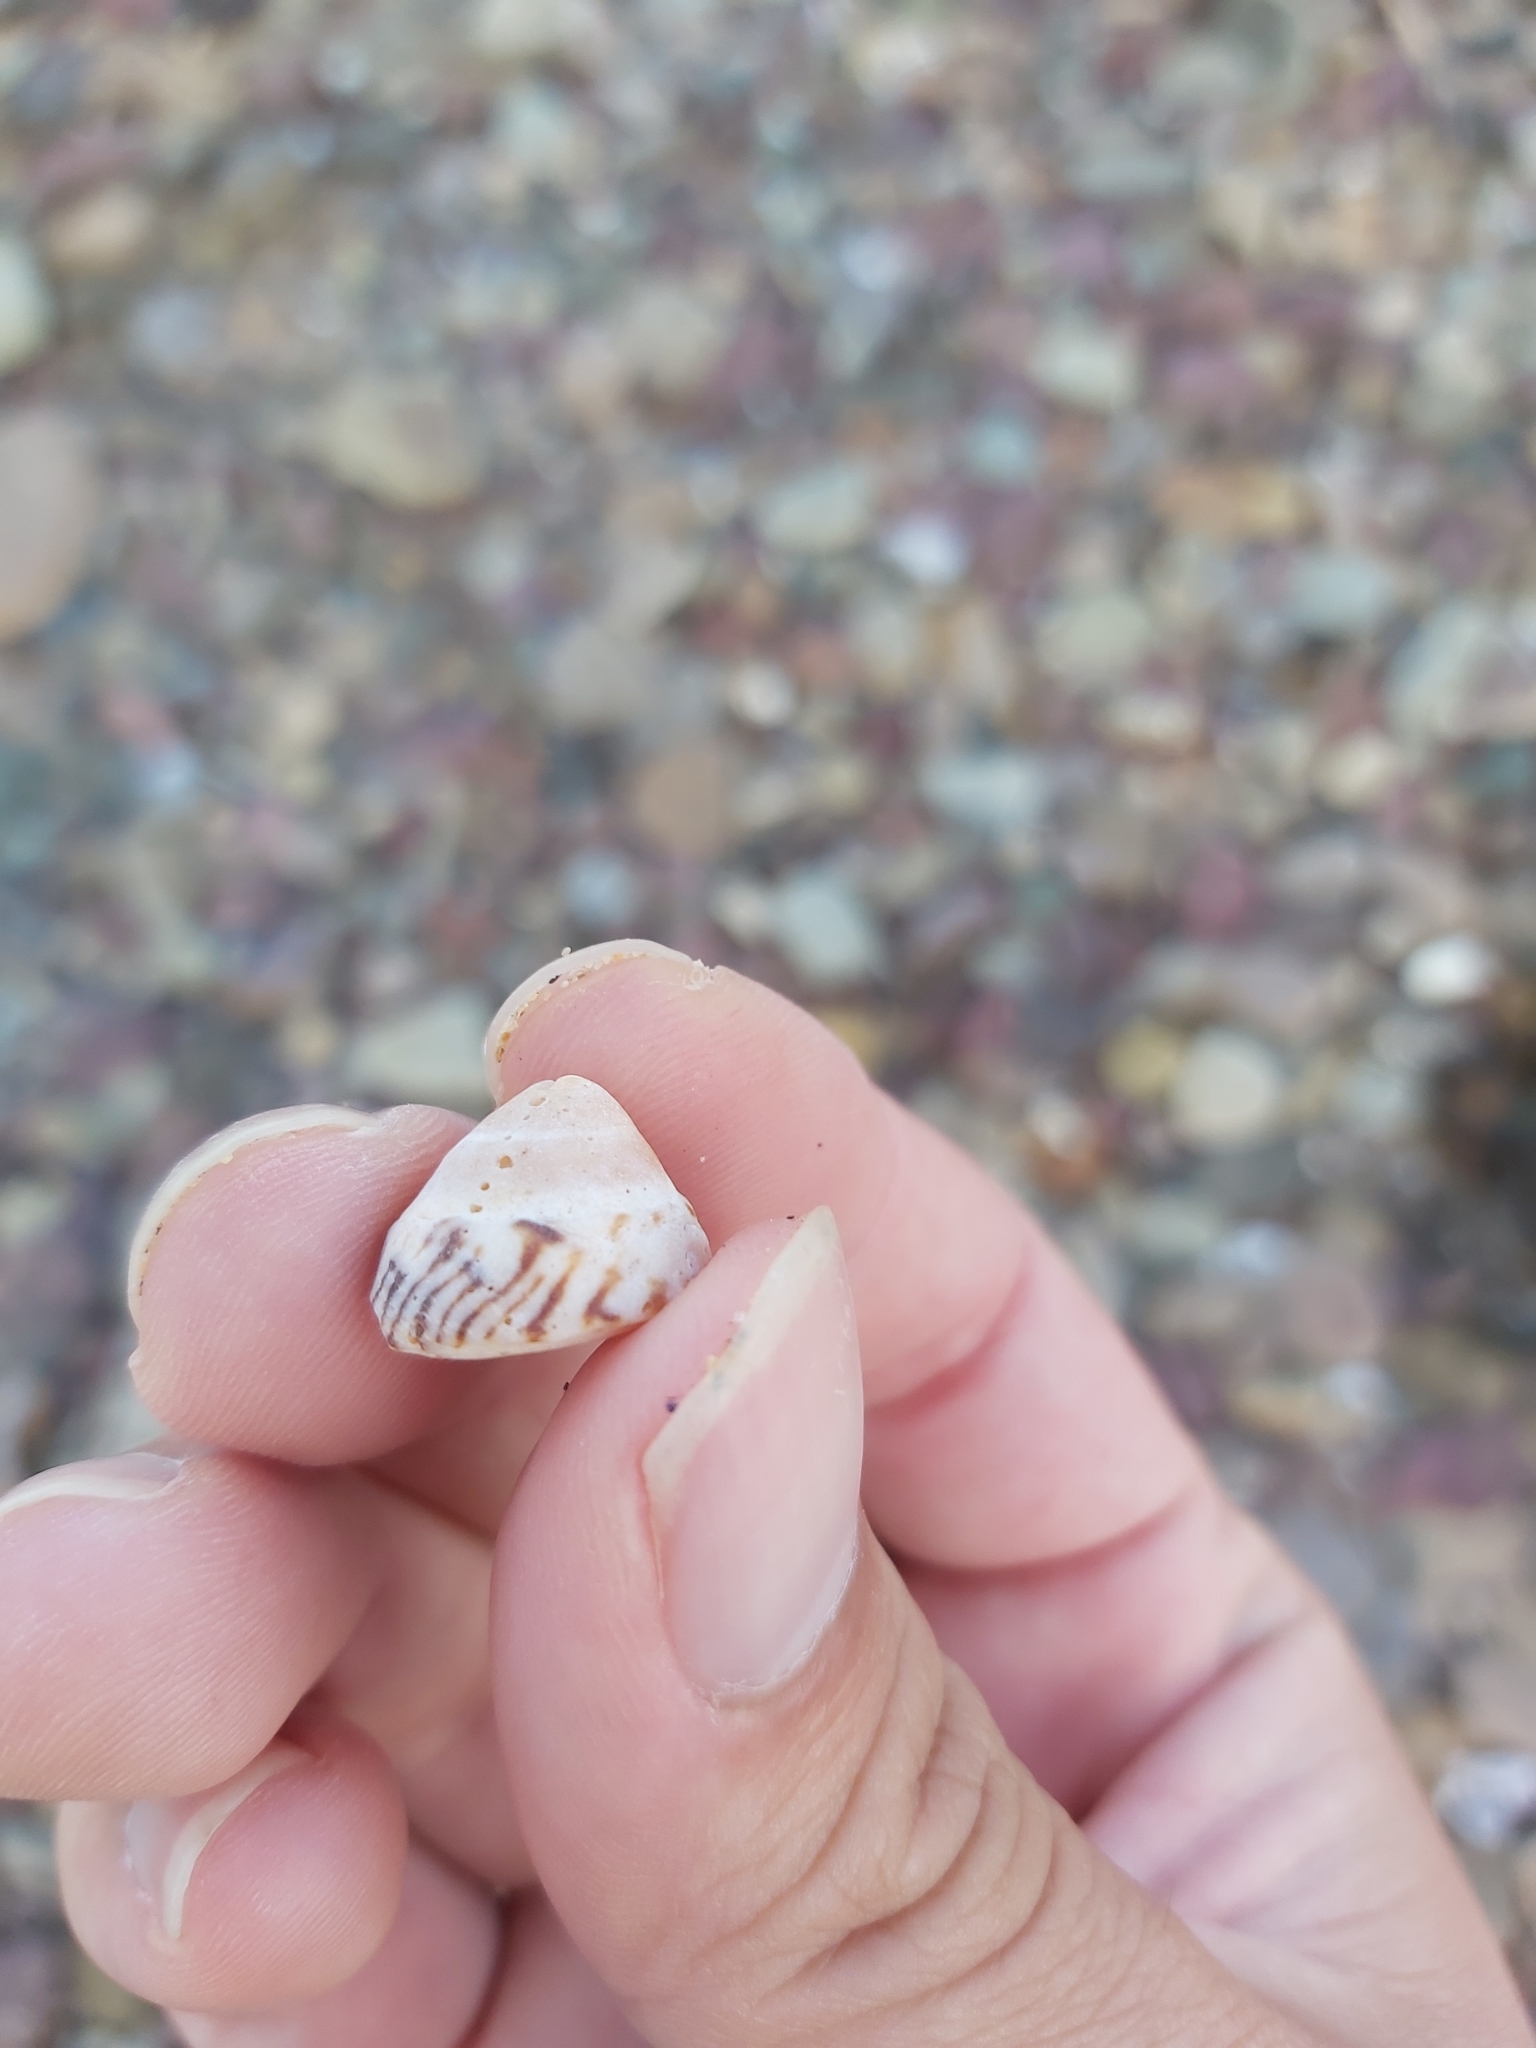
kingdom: Animalia
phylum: Mollusca
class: Gastropoda
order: Littorinimorpha
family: Littorinidae
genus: Bembicium
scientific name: Bembicium nanum
